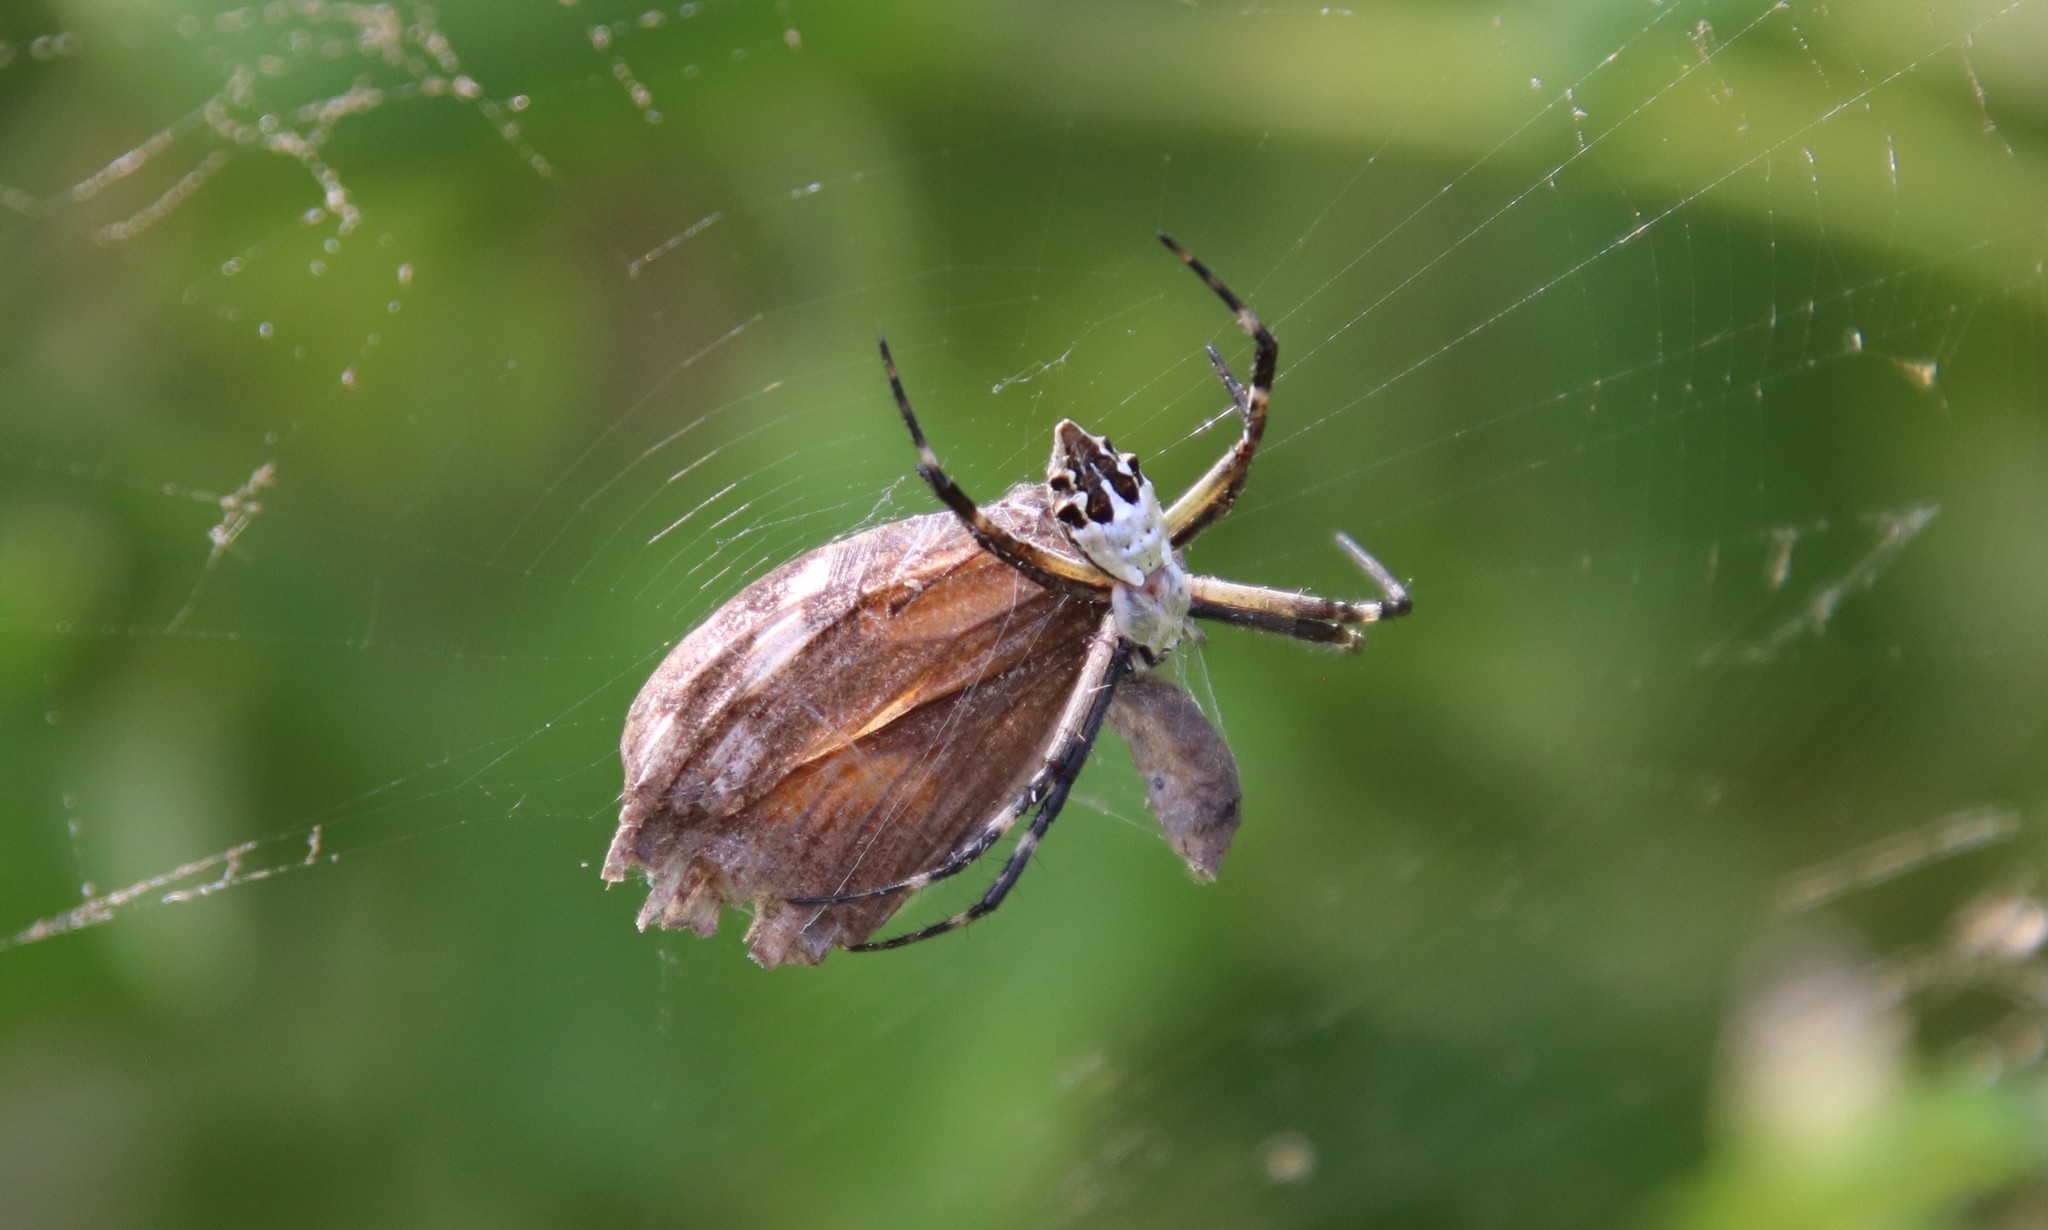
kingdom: Animalia
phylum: Arthropoda
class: Arachnida
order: Araneae
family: Araneidae
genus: Argiope
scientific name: Argiope argentata
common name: Orb weavers
